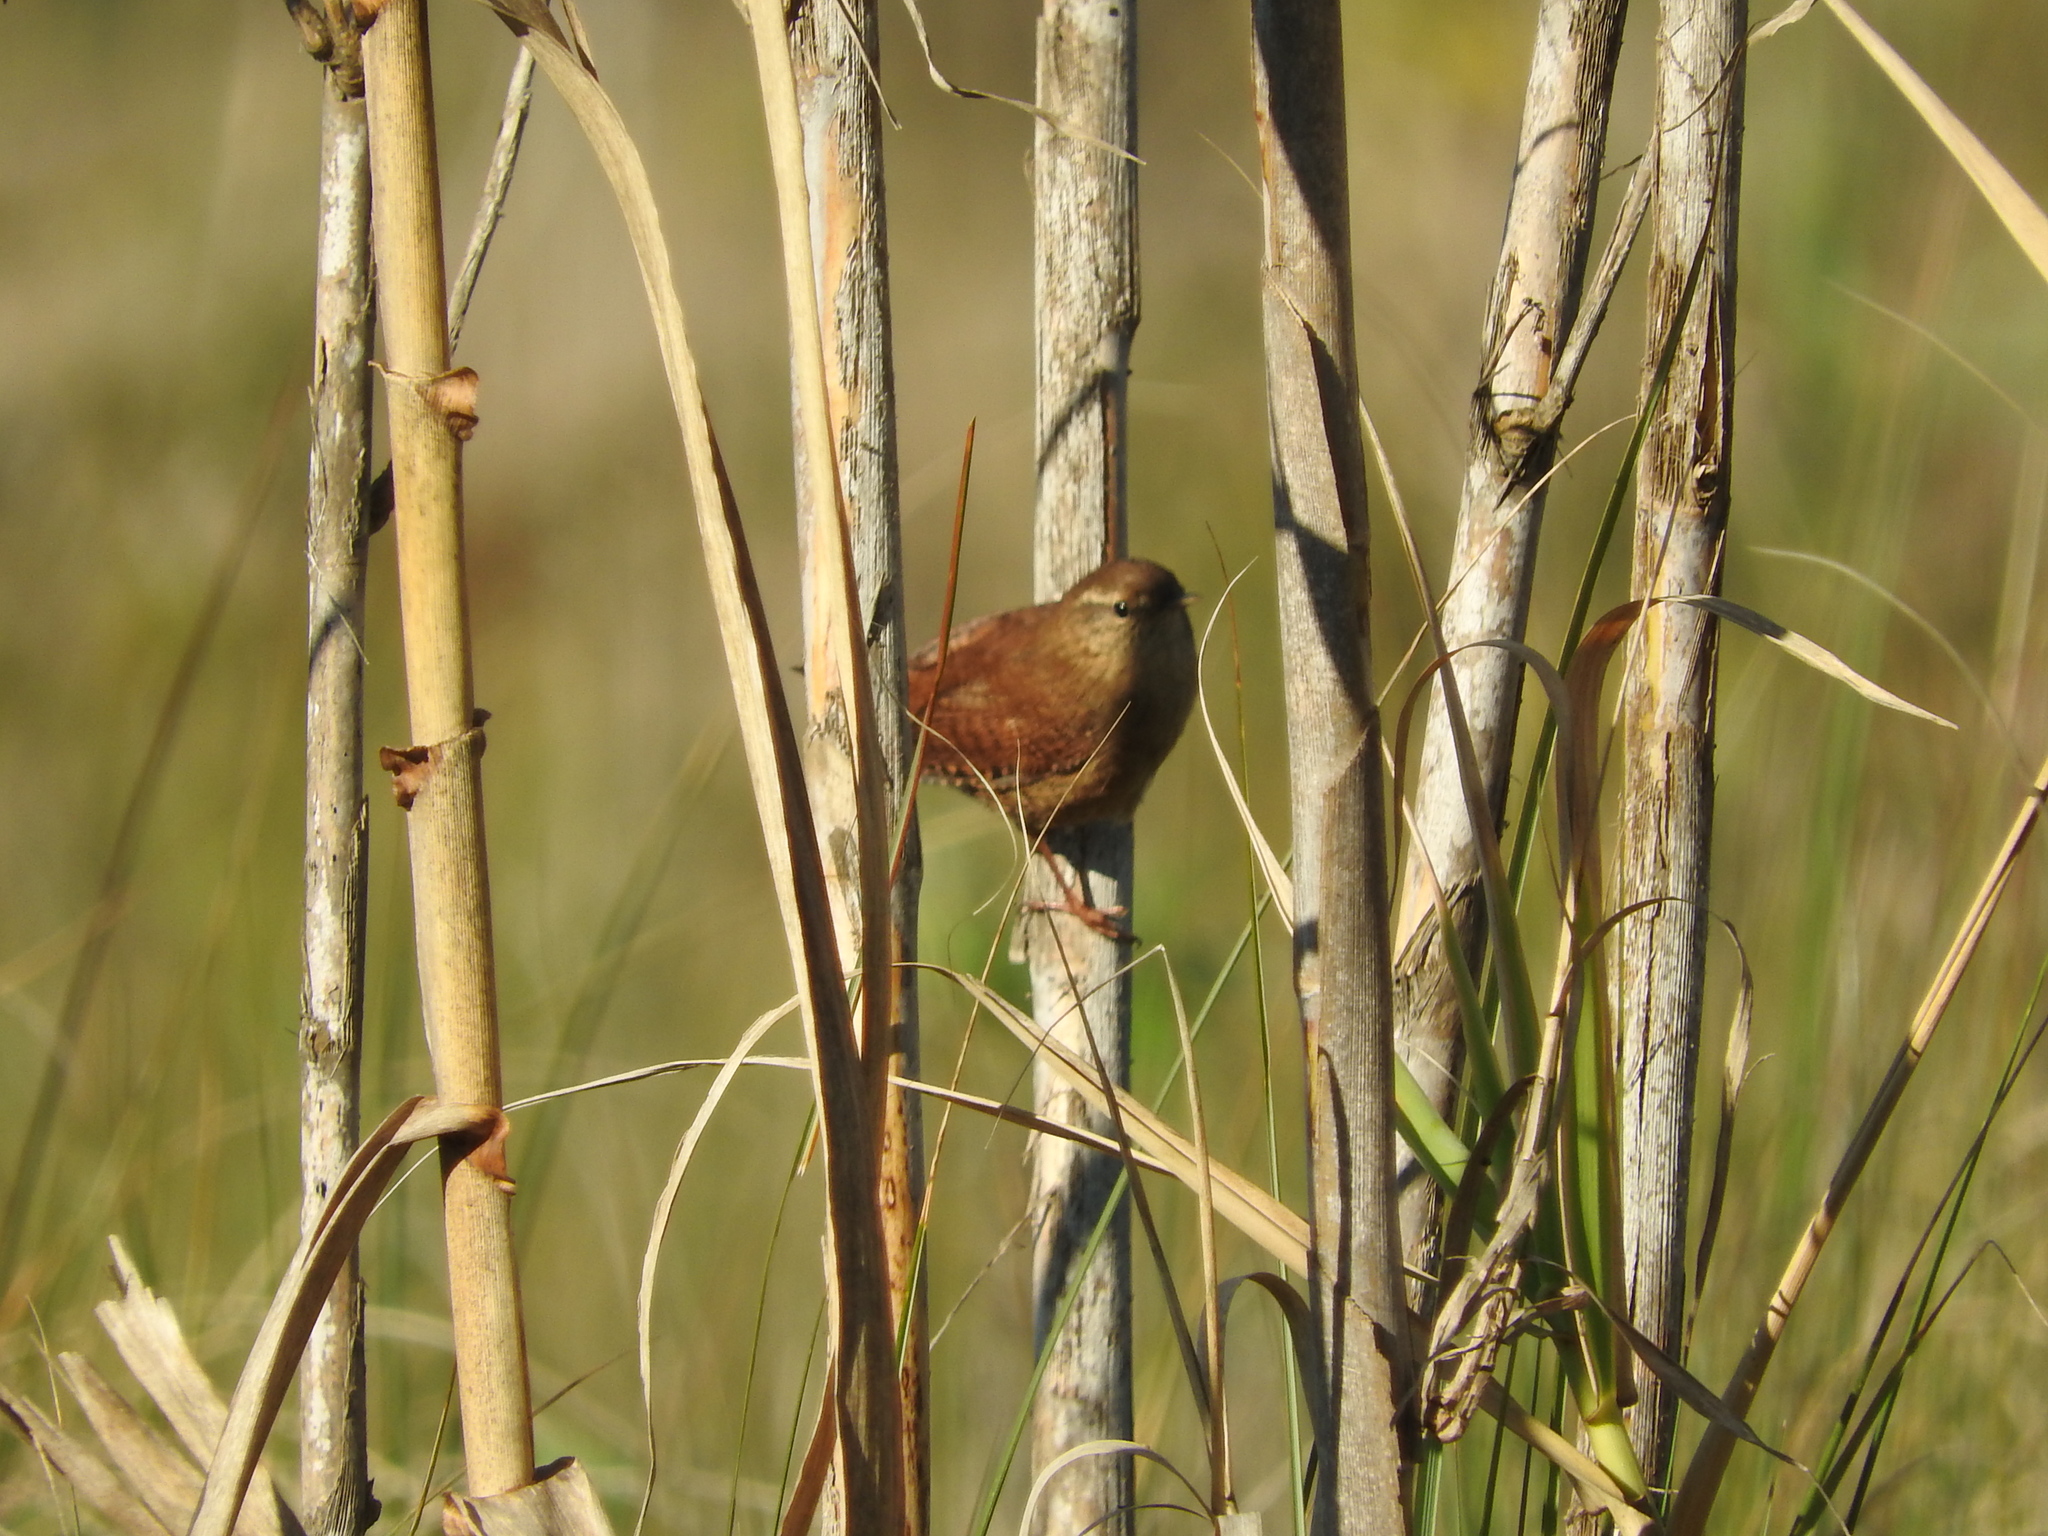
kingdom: Animalia
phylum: Chordata
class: Aves
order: Passeriformes
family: Troglodytidae
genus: Troglodytes
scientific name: Troglodytes troglodytes
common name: Eurasian wren
